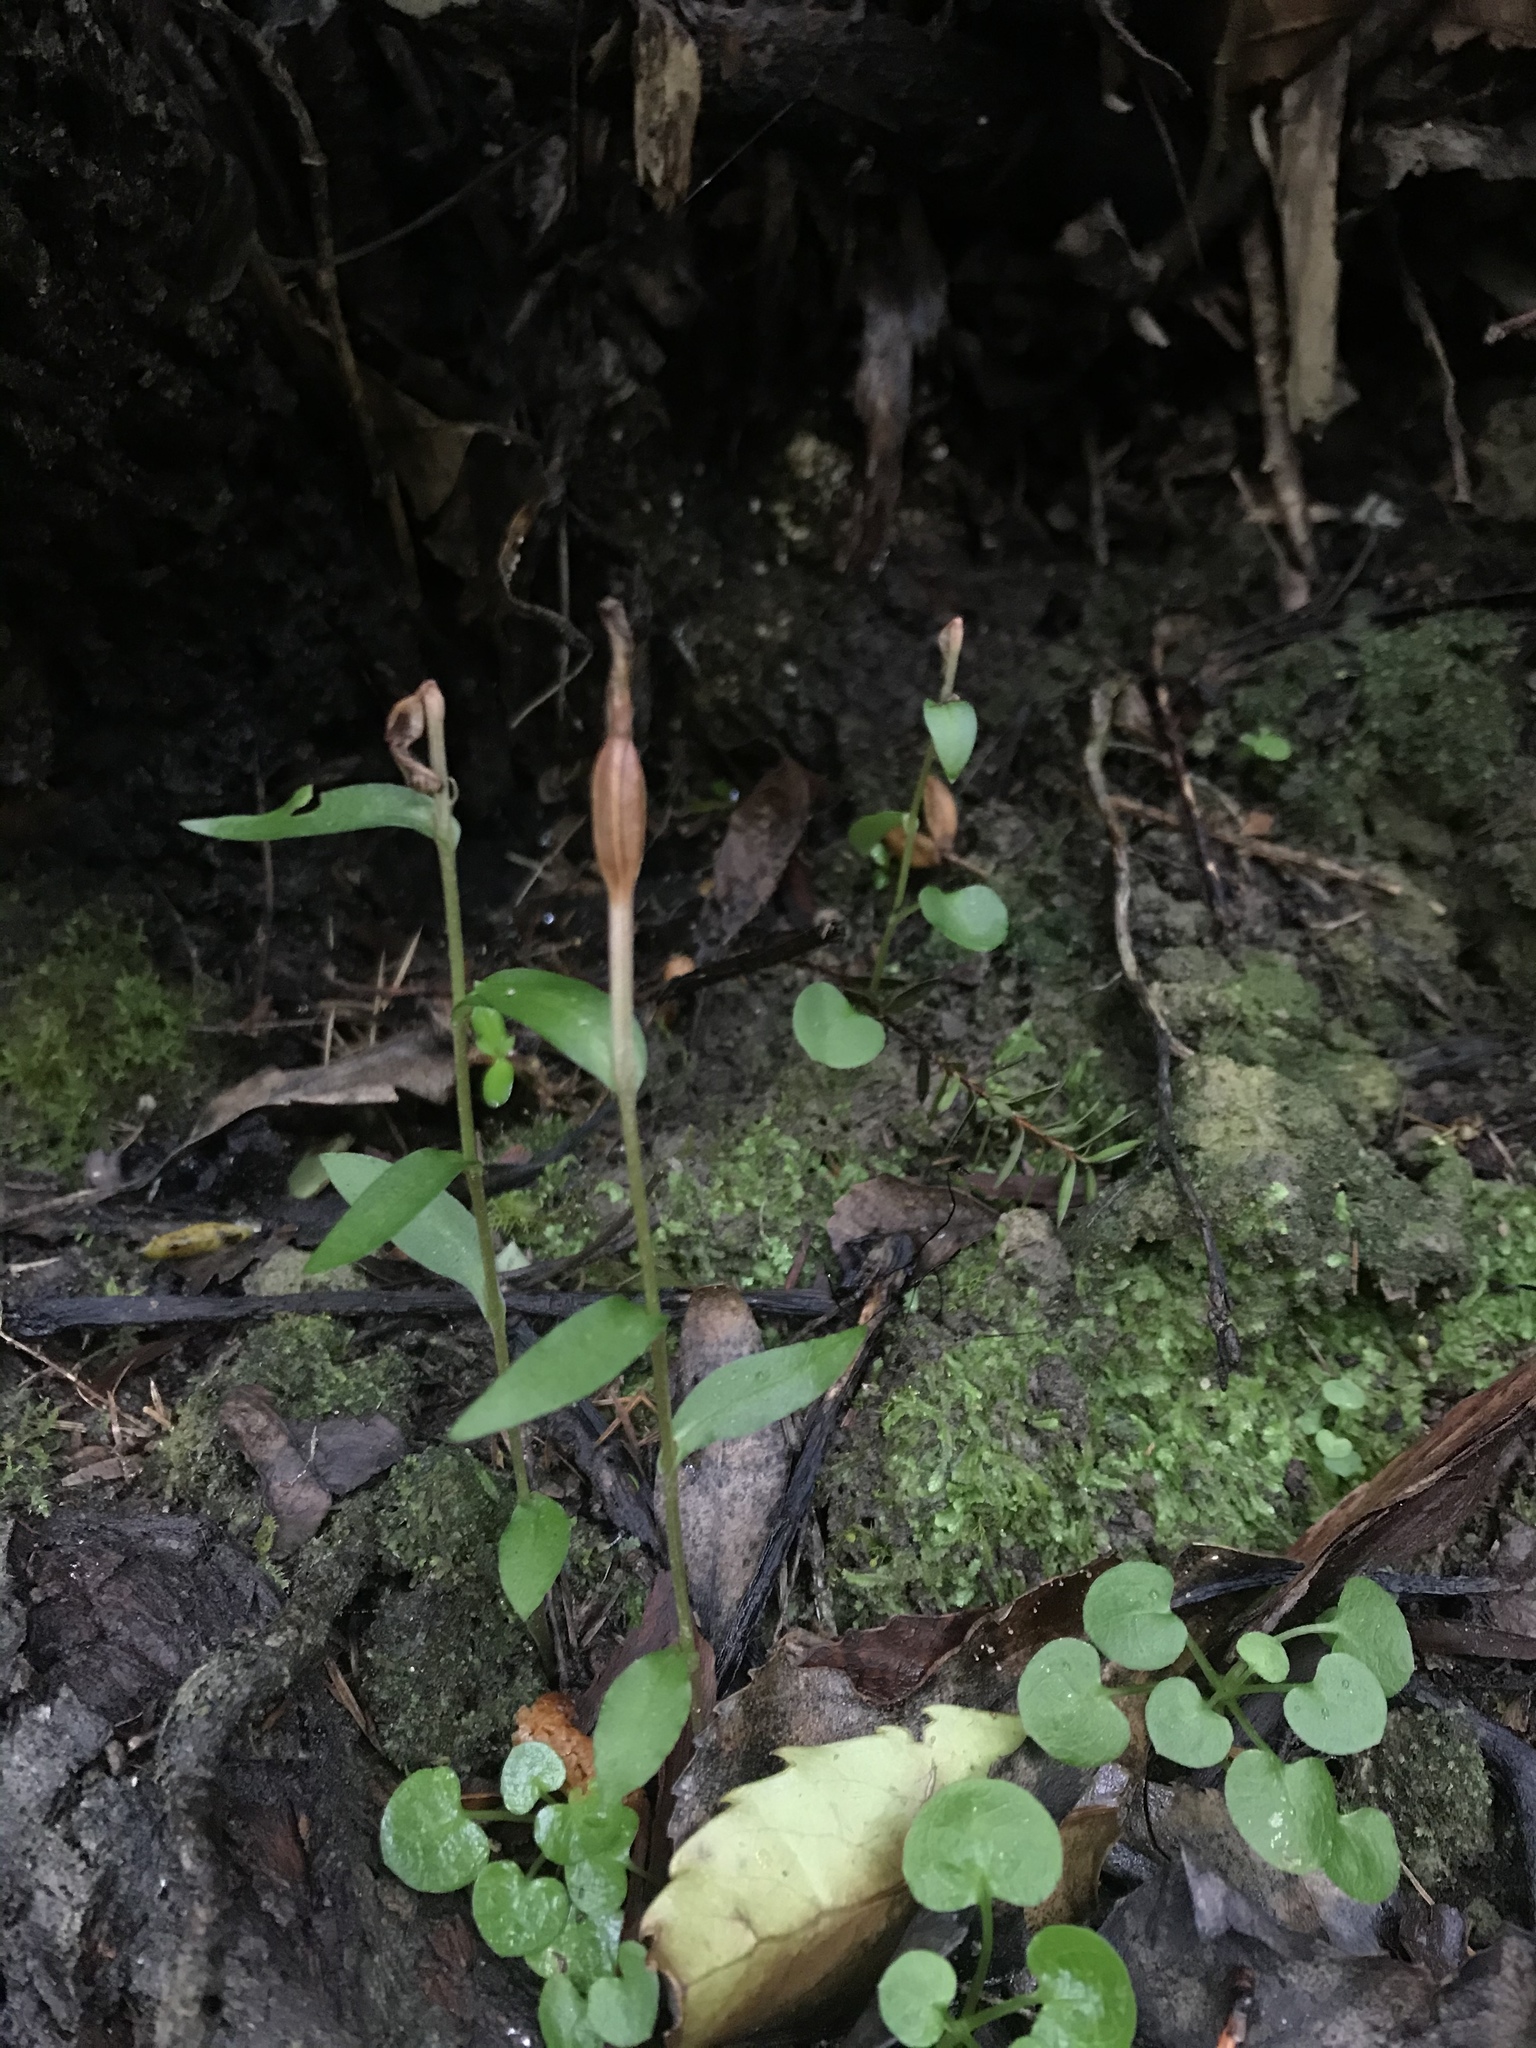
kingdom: Plantae
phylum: Tracheophyta
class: Liliopsida
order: Asparagales
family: Orchidaceae
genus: Pterostylis
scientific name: Pterostylis alobula
